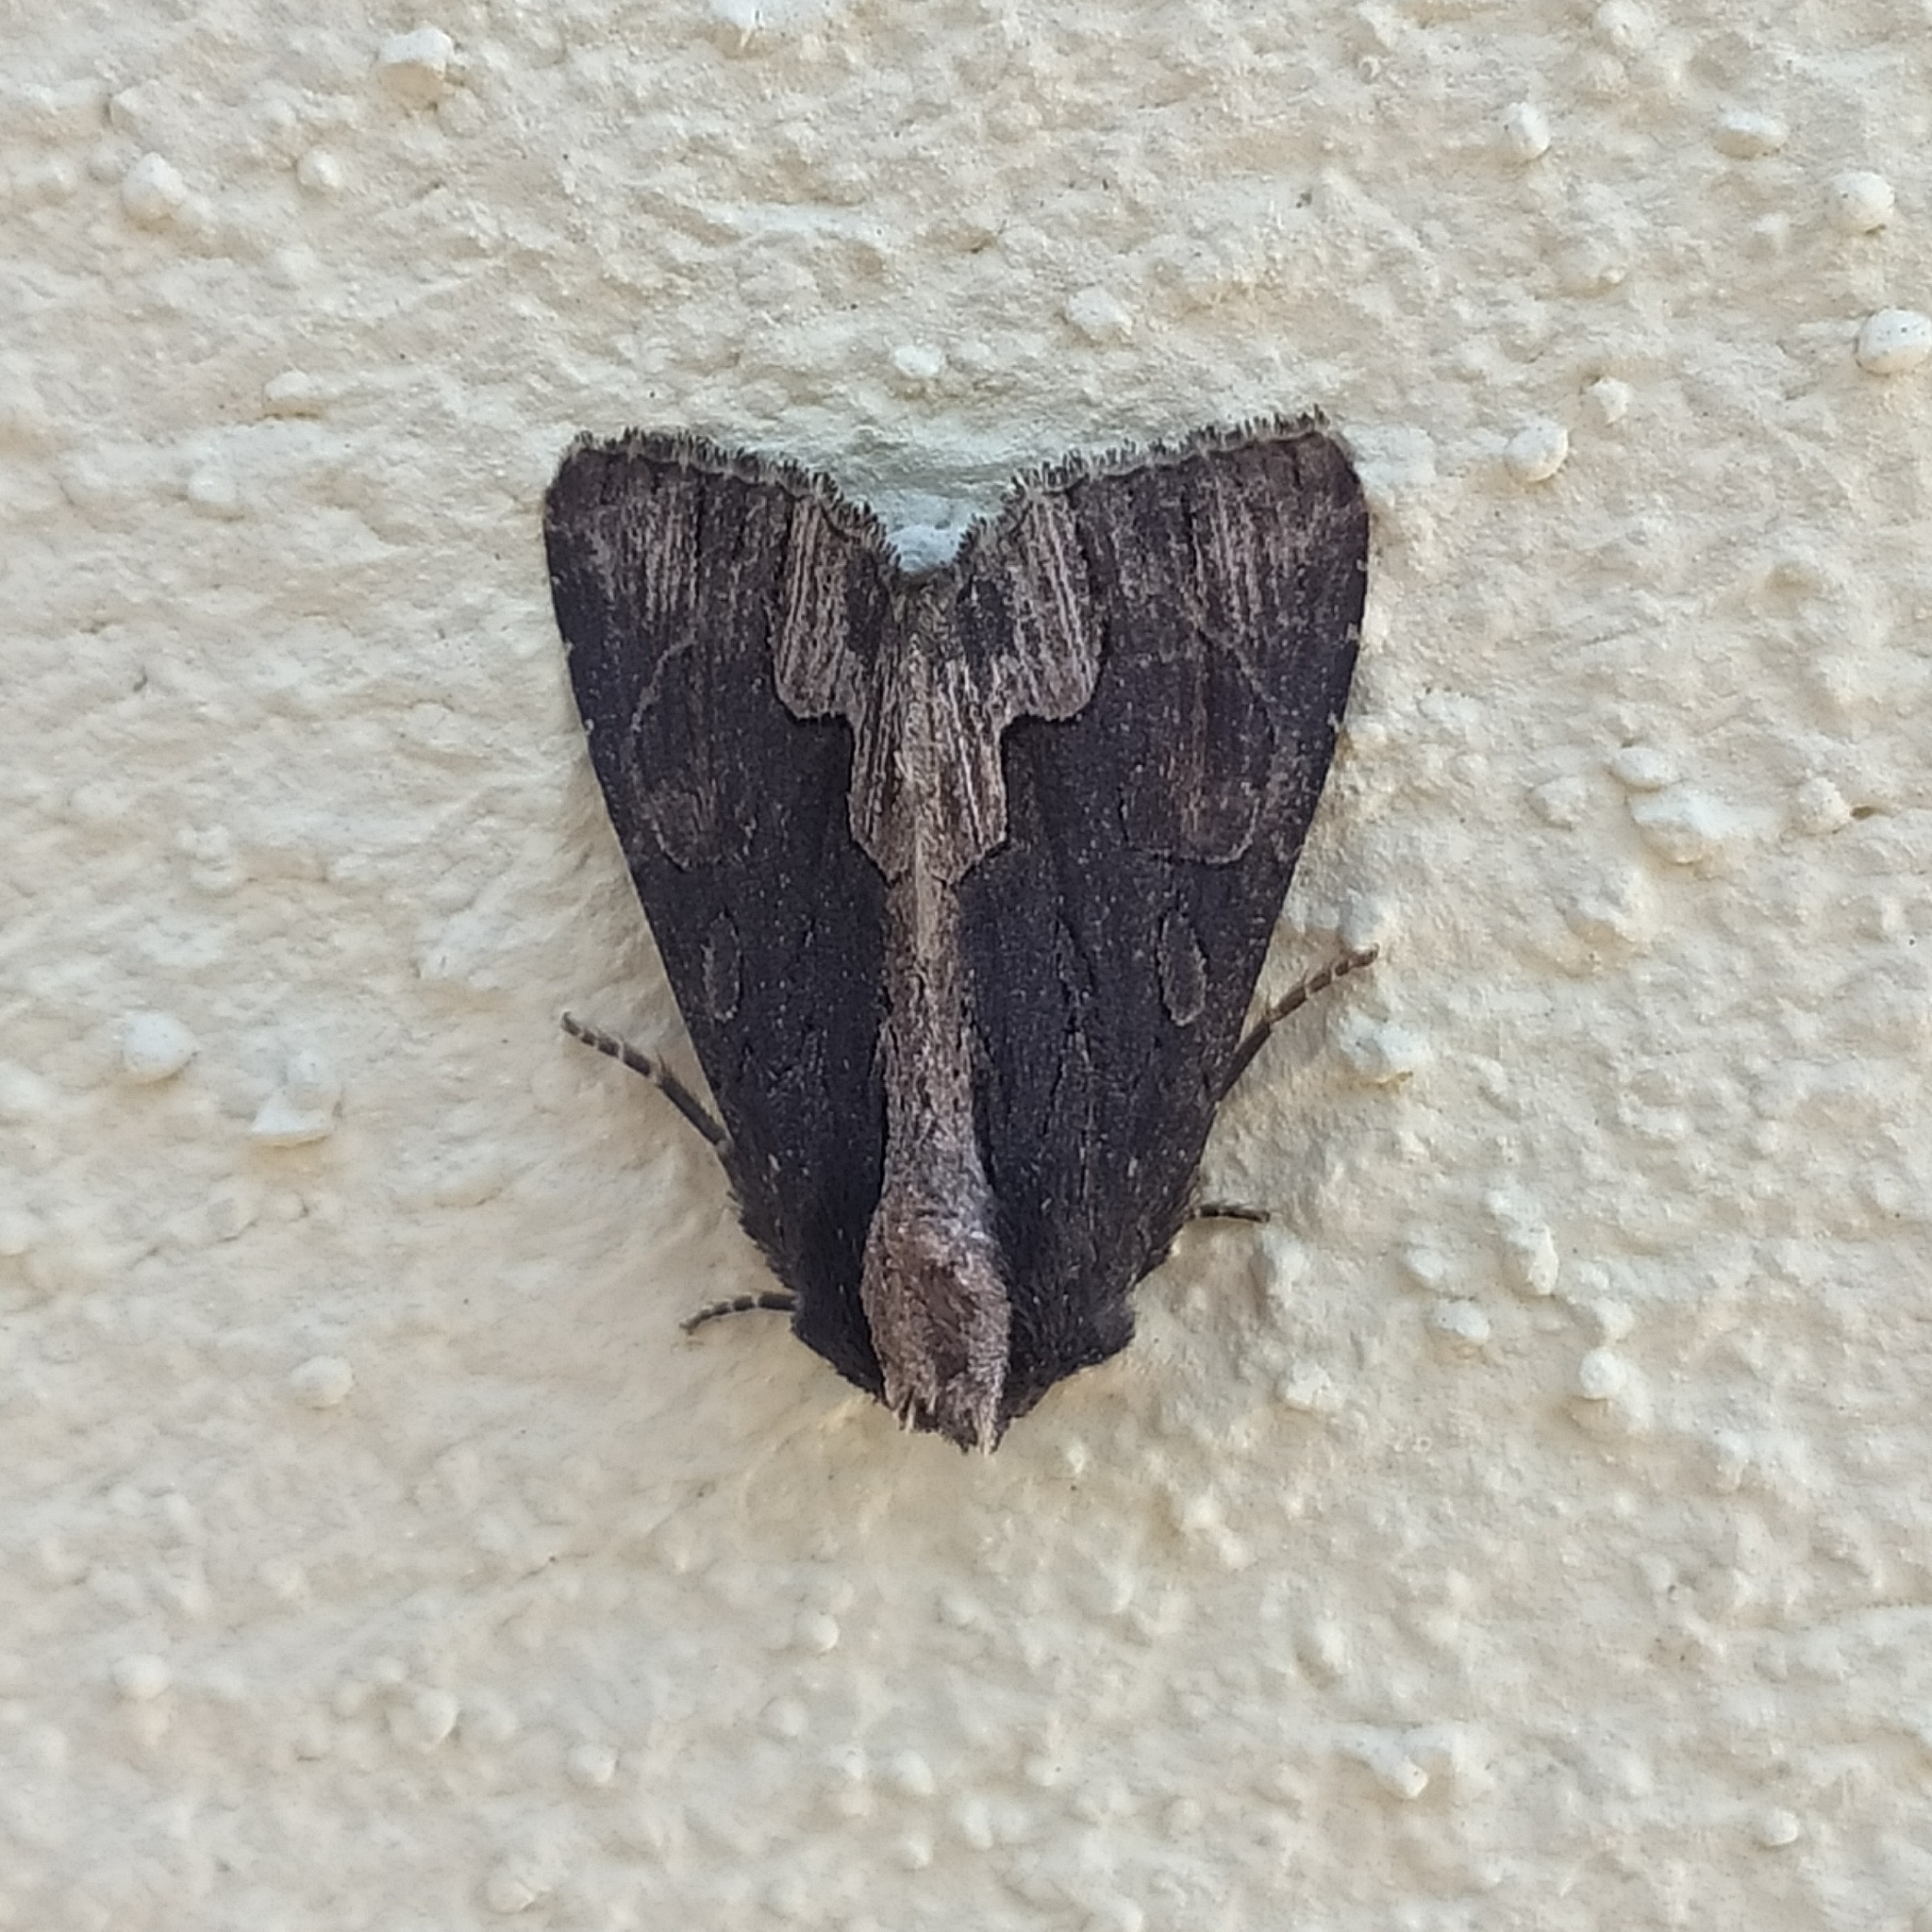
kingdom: Animalia
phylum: Arthropoda
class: Insecta
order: Lepidoptera
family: Noctuidae
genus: Dypterygia
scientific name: Dypterygia scabriuscula
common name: Bird's wing
